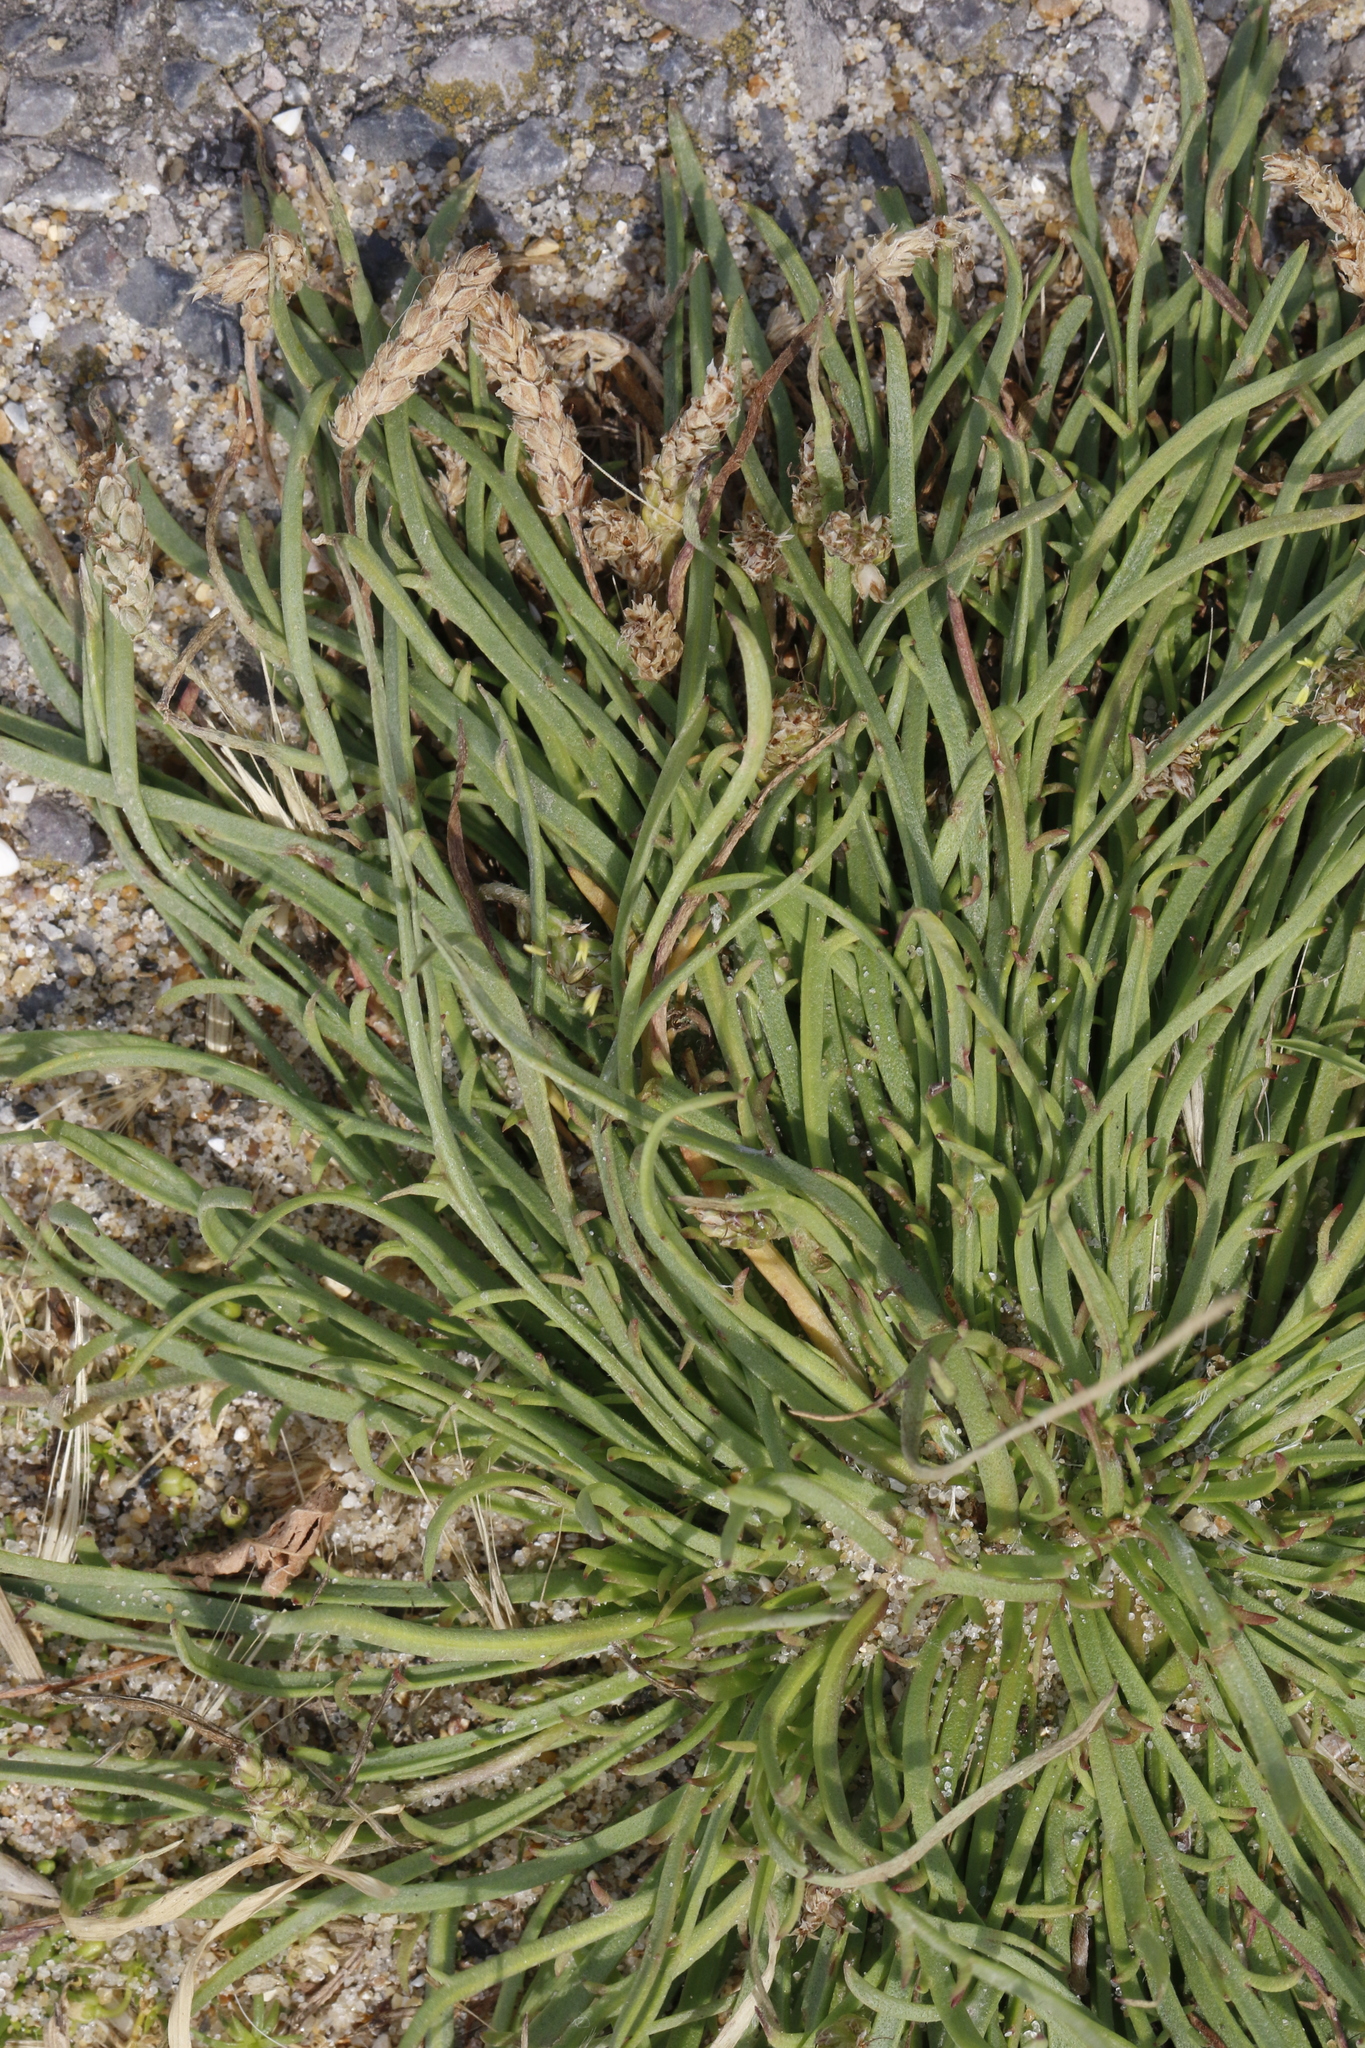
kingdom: Plantae
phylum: Tracheophyta
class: Magnoliopsida
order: Lamiales
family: Plantaginaceae
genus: Plantago
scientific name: Plantago maritima
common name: Sea plantain
